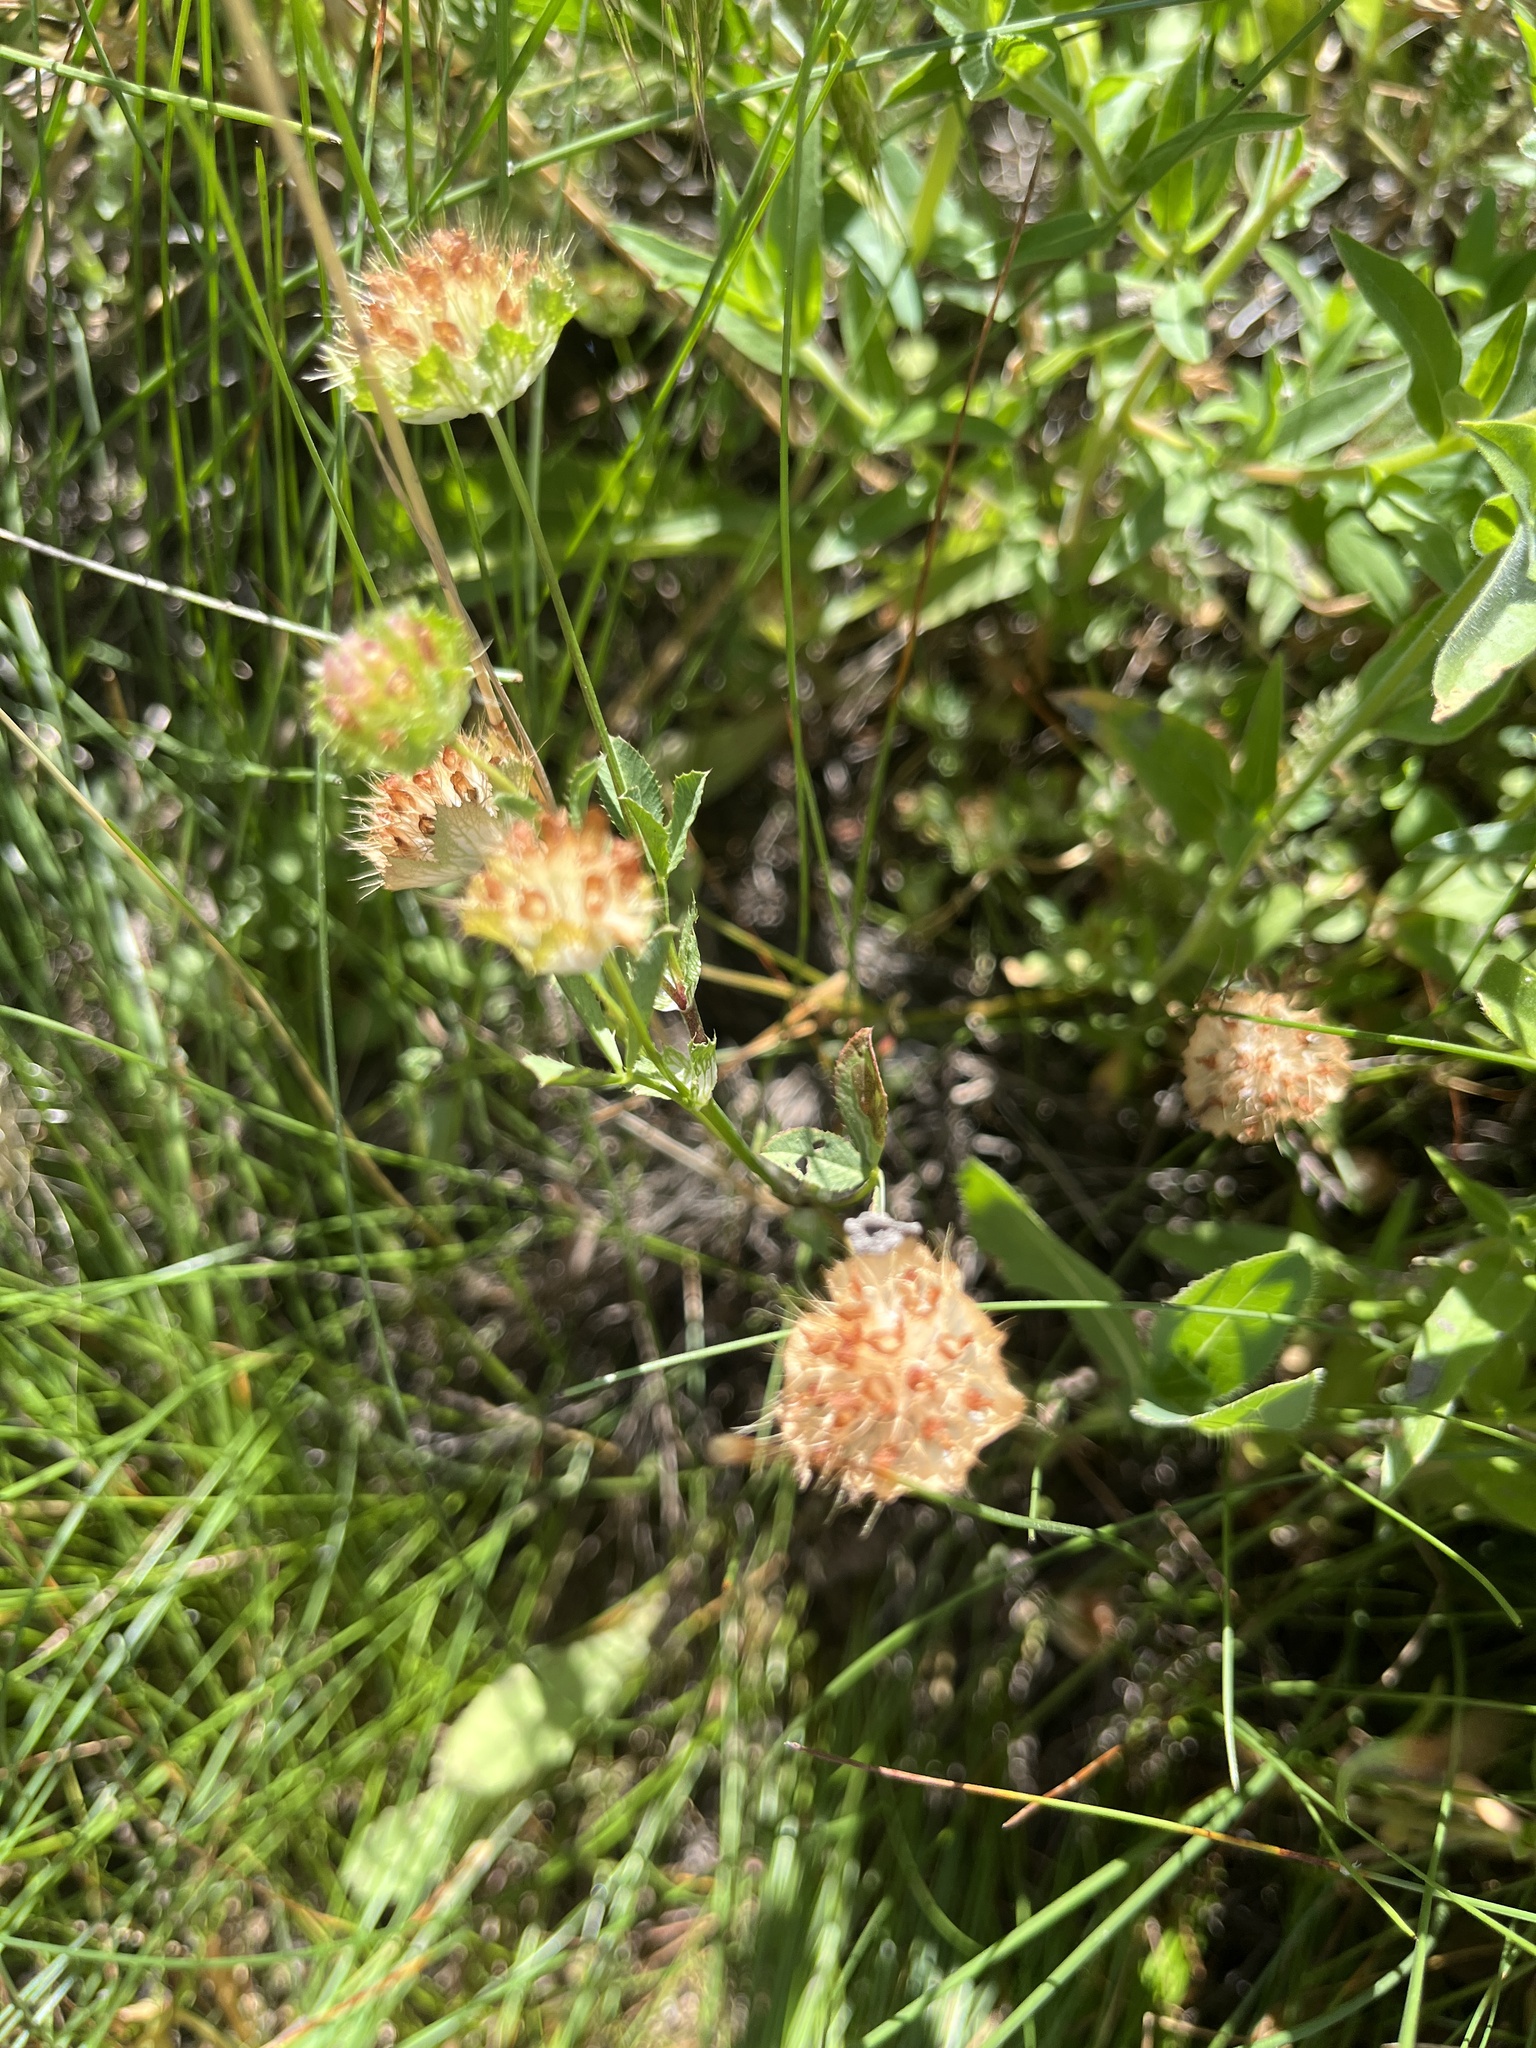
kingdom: Plantae
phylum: Tracheophyta
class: Magnoliopsida
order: Fabales
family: Fabaceae
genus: Trifolium
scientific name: Trifolium cyathiferum
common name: Bowl clover
